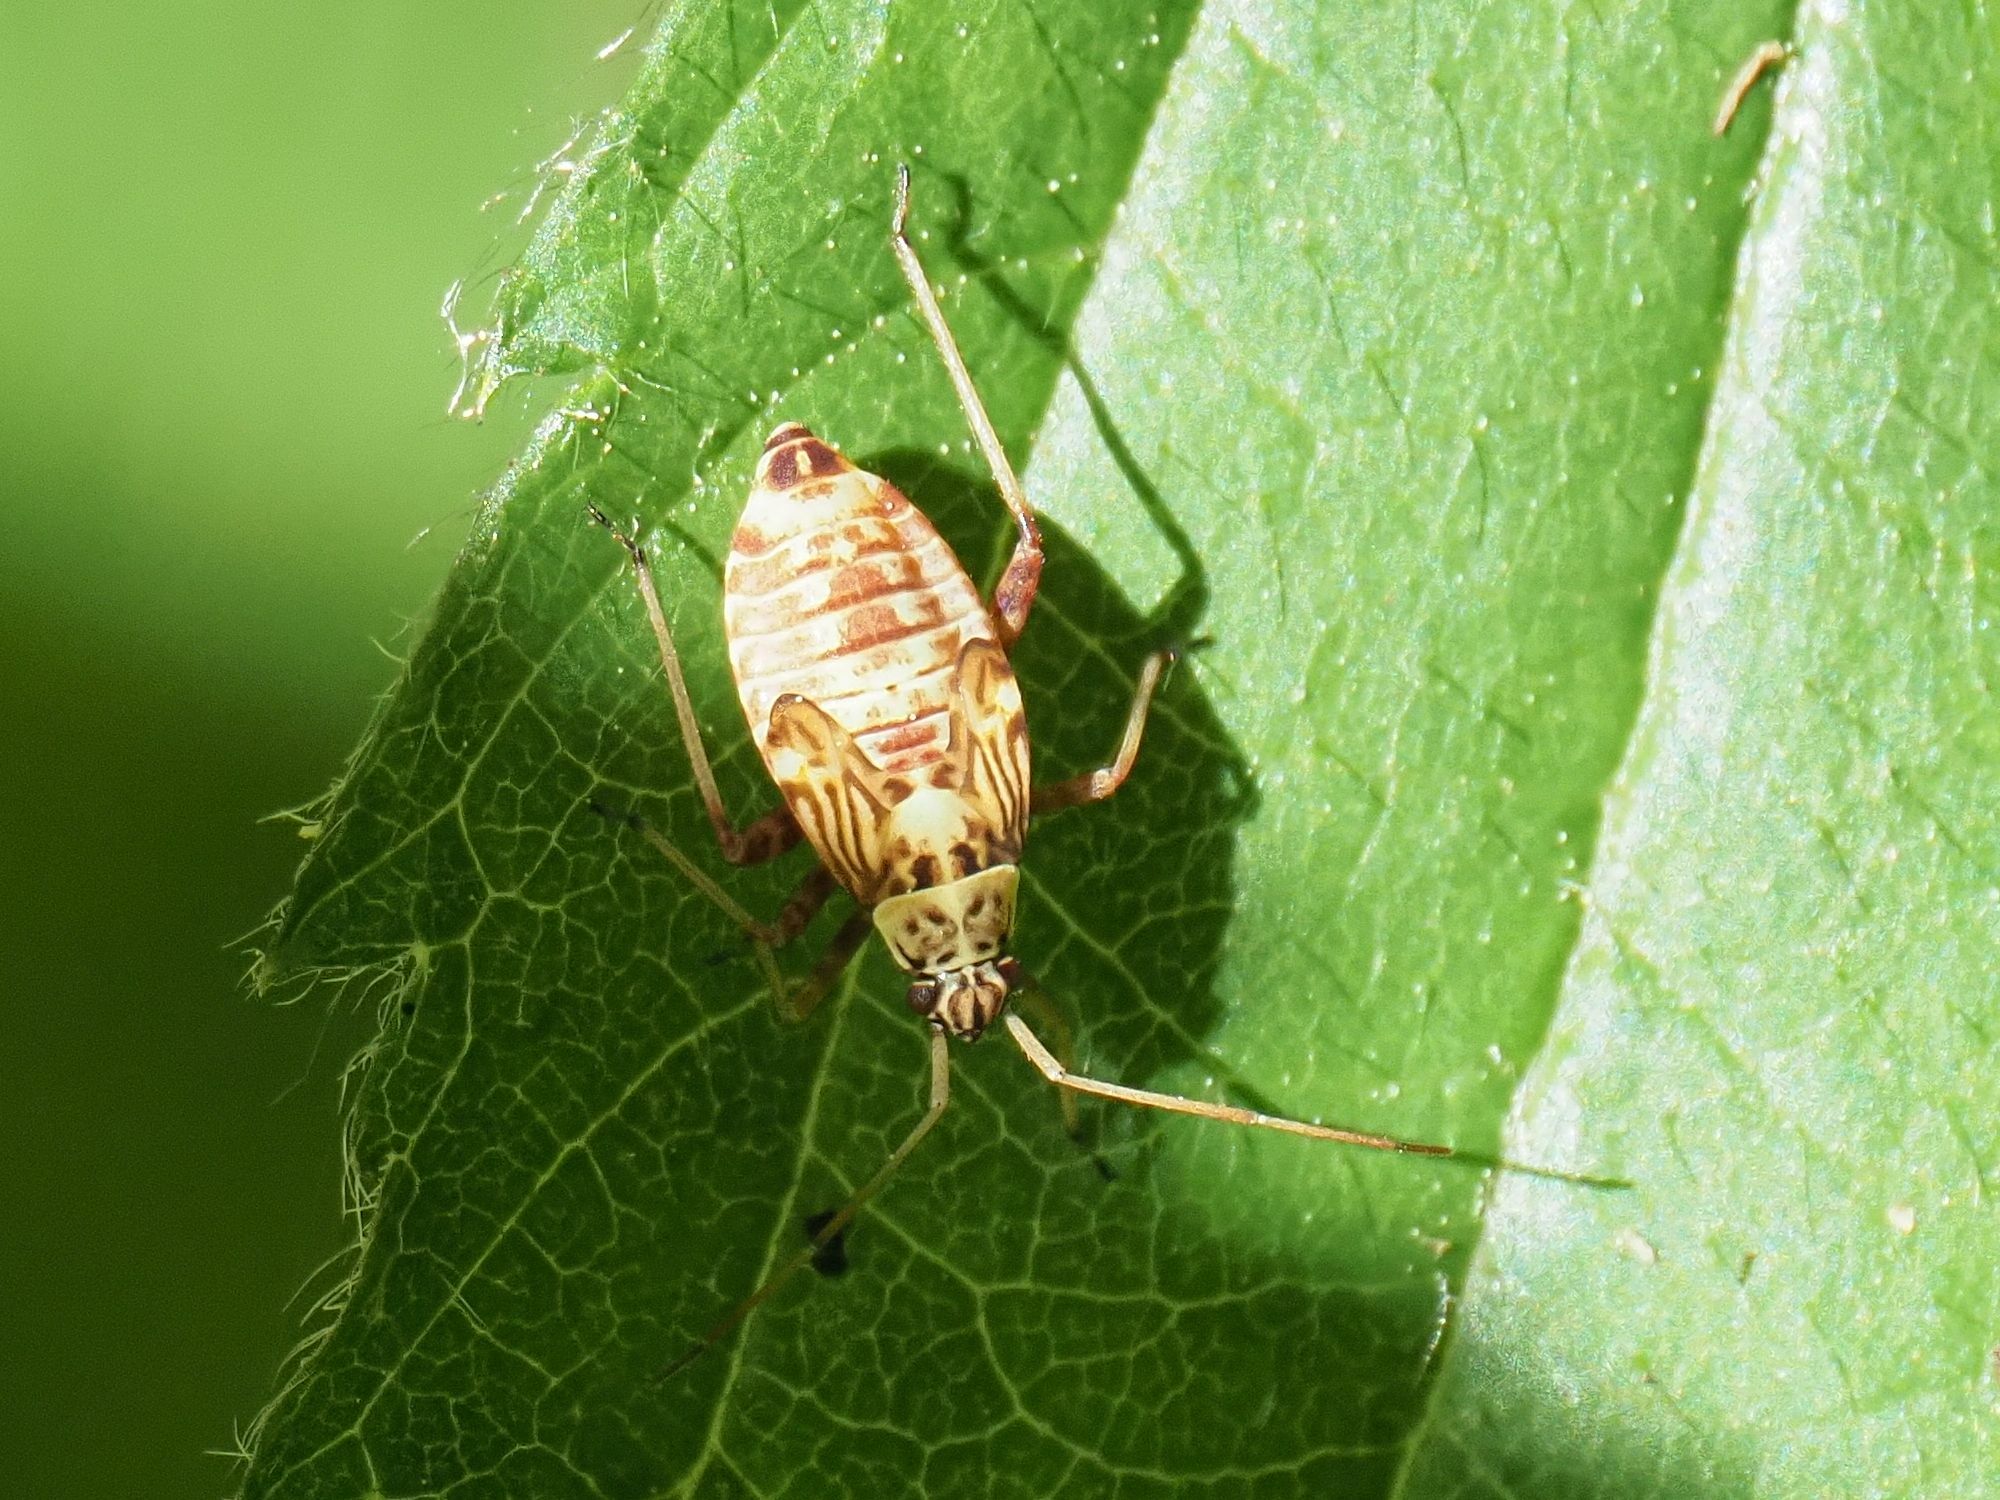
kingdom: Animalia
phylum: Arthropoda
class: Insecta
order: Hemiptera
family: Miridae
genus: Rhabdomiris
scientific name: Rhabdomiris striatellus
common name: Plant bug
